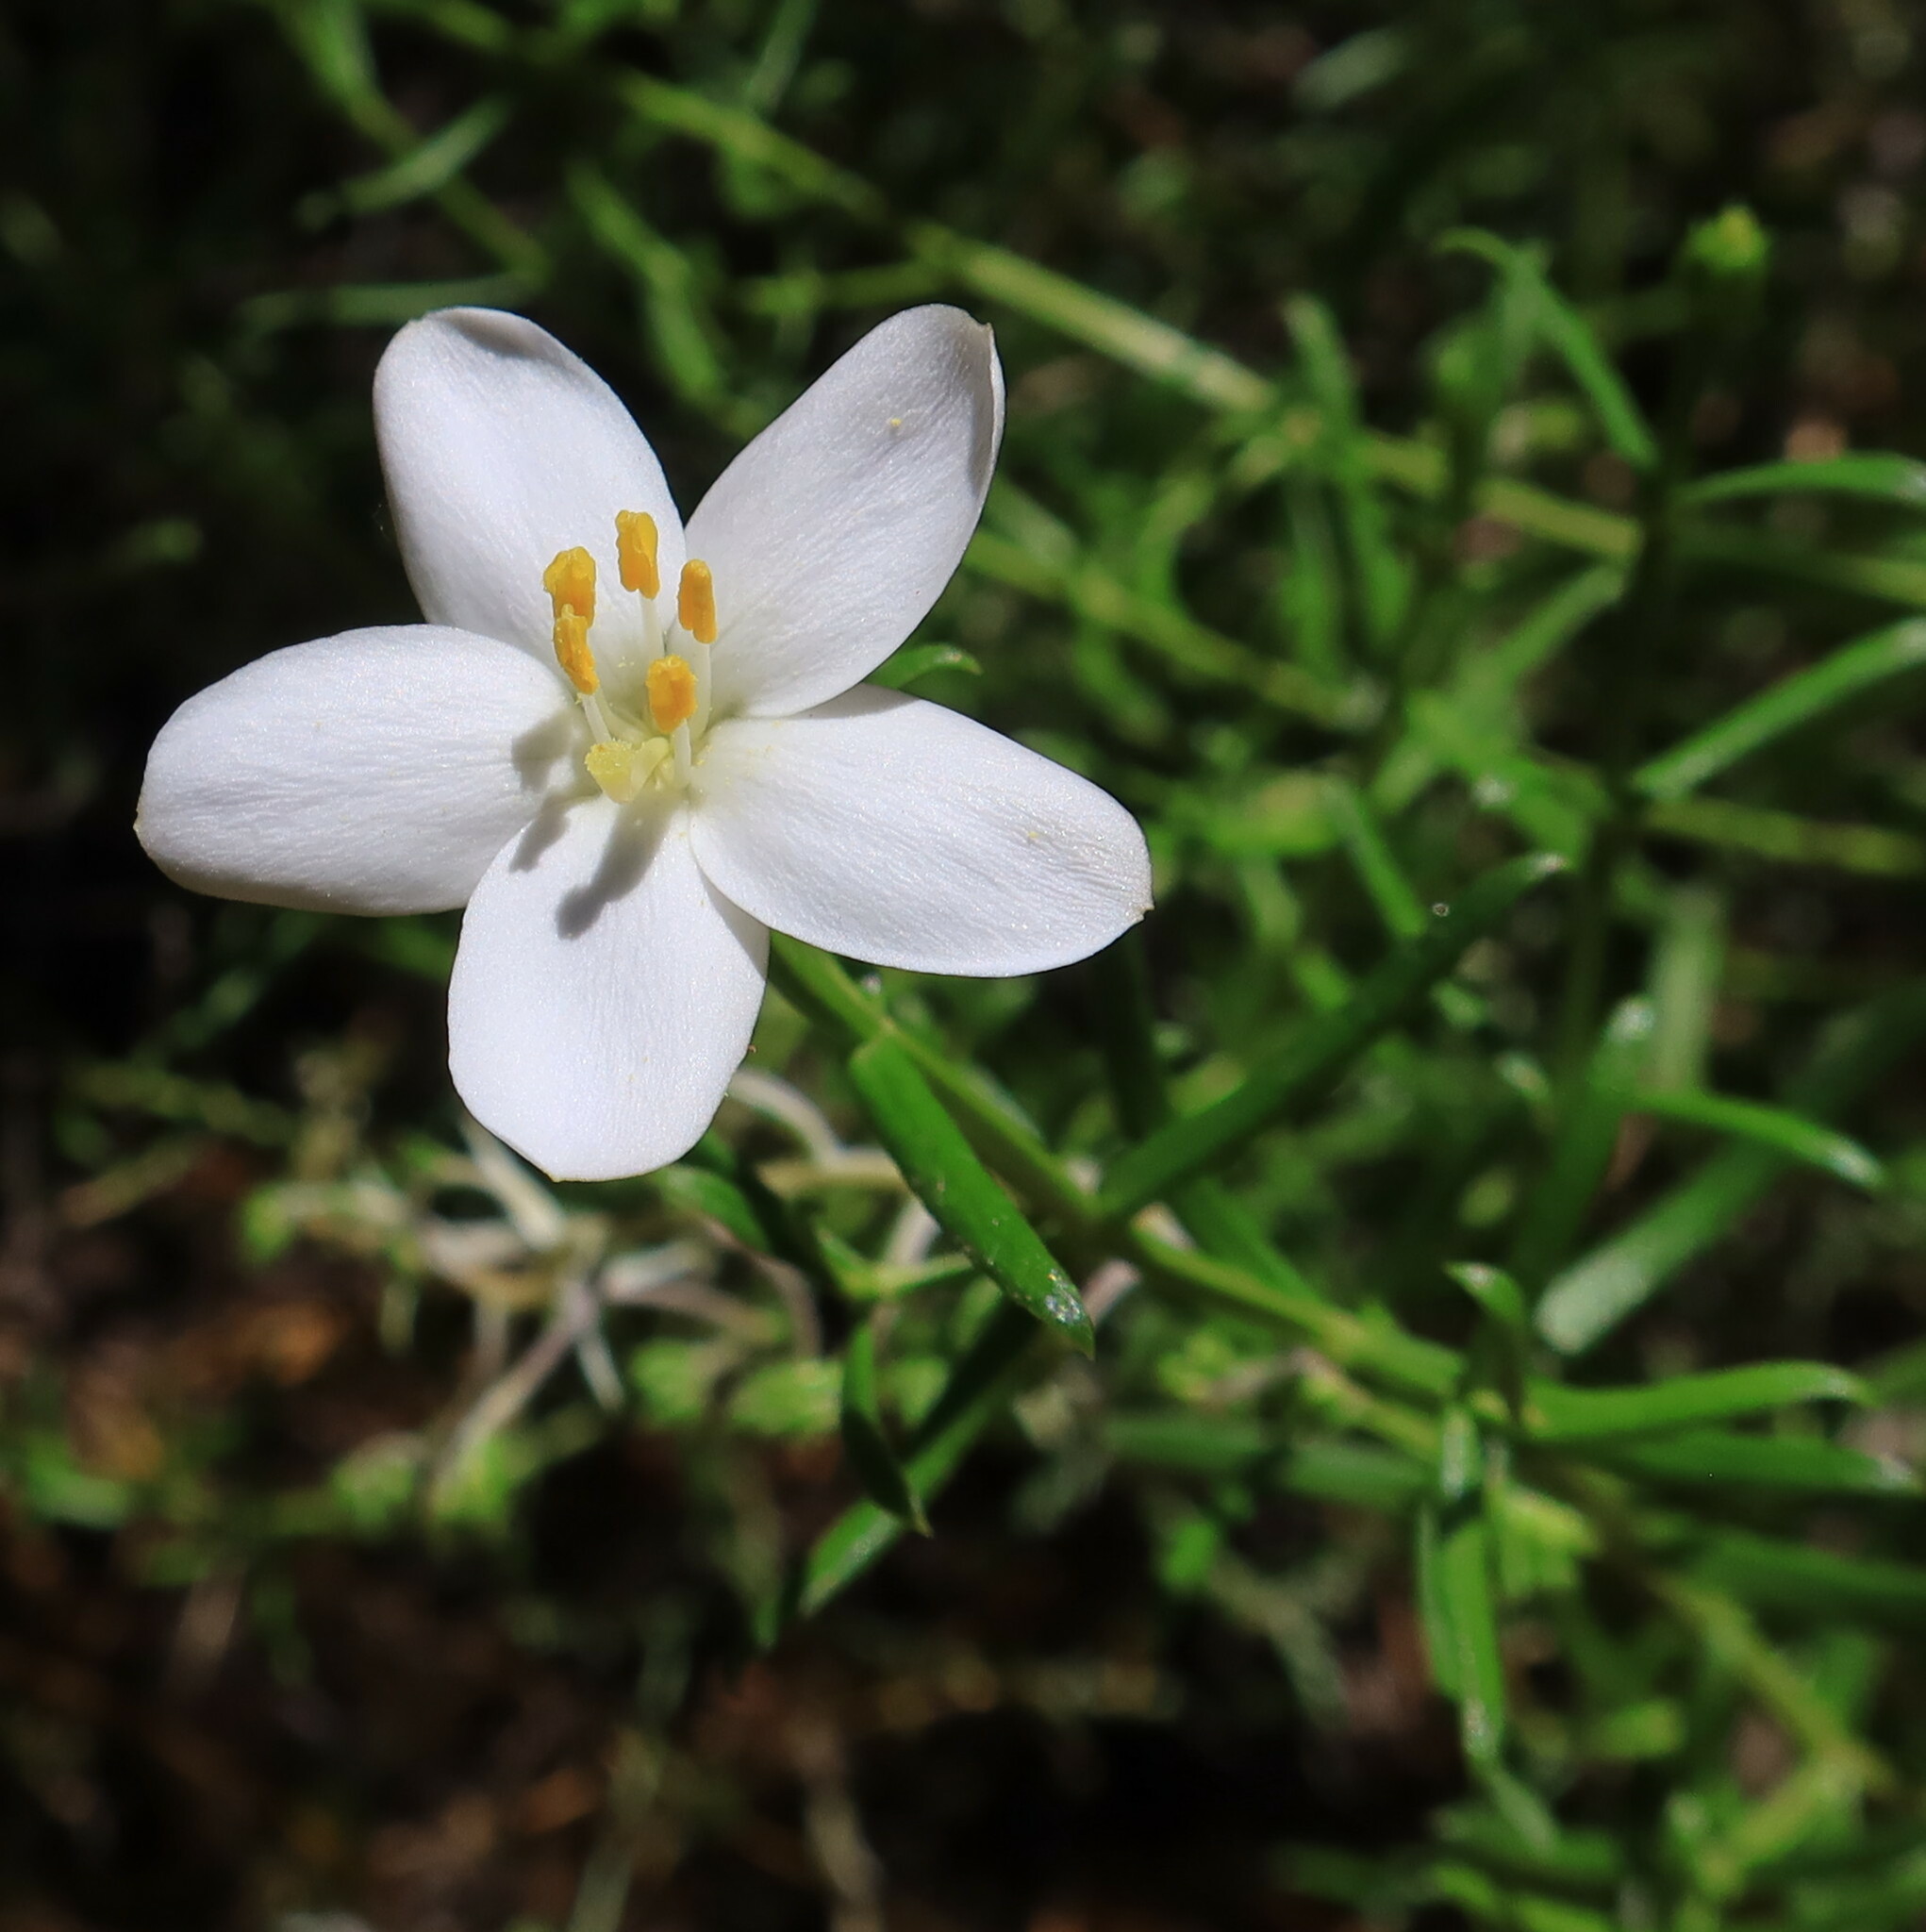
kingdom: Plantae
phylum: Tracheophyta
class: Magnoliopsida
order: Gentianales
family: Gentianaceae
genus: Chironia
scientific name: Chironia baccifera
